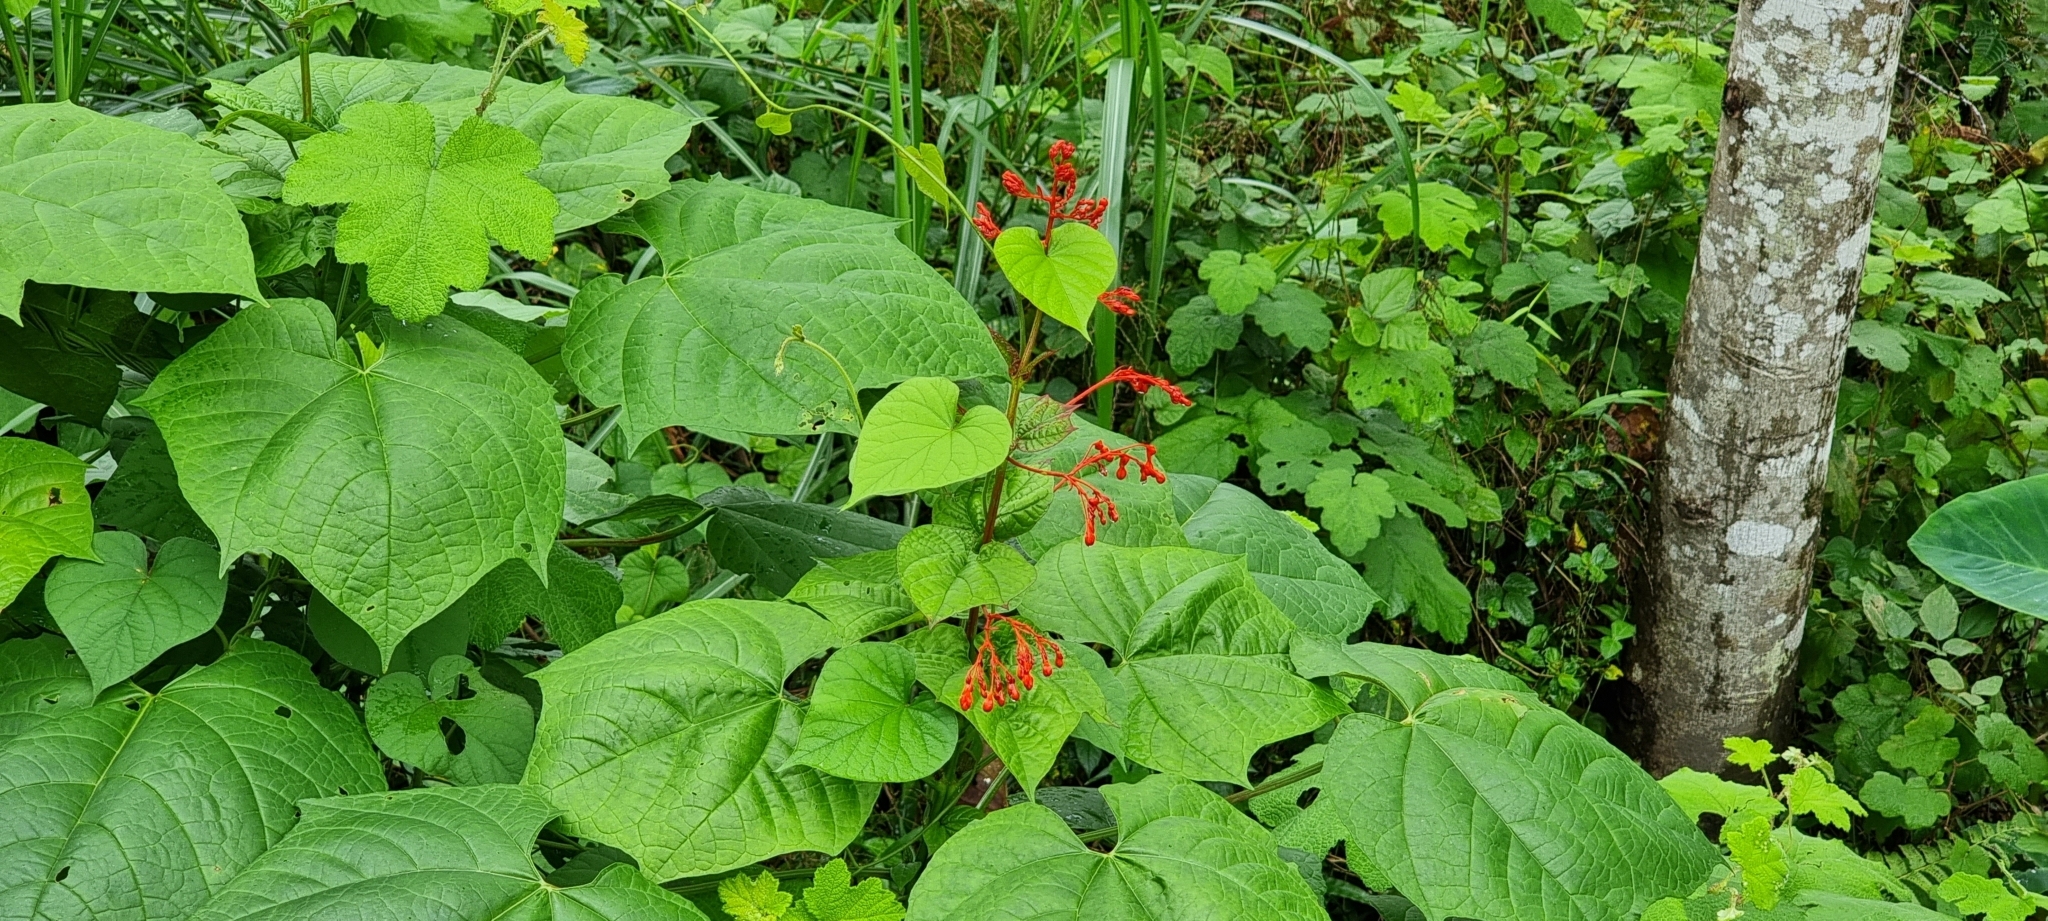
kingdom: Plantae
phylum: Tracheophyta
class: Magnoliopsida
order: Lamiales
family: Lamiaceae
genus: Clerodendrum
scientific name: Clerodendrum japonicum
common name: Japanese glorybower
